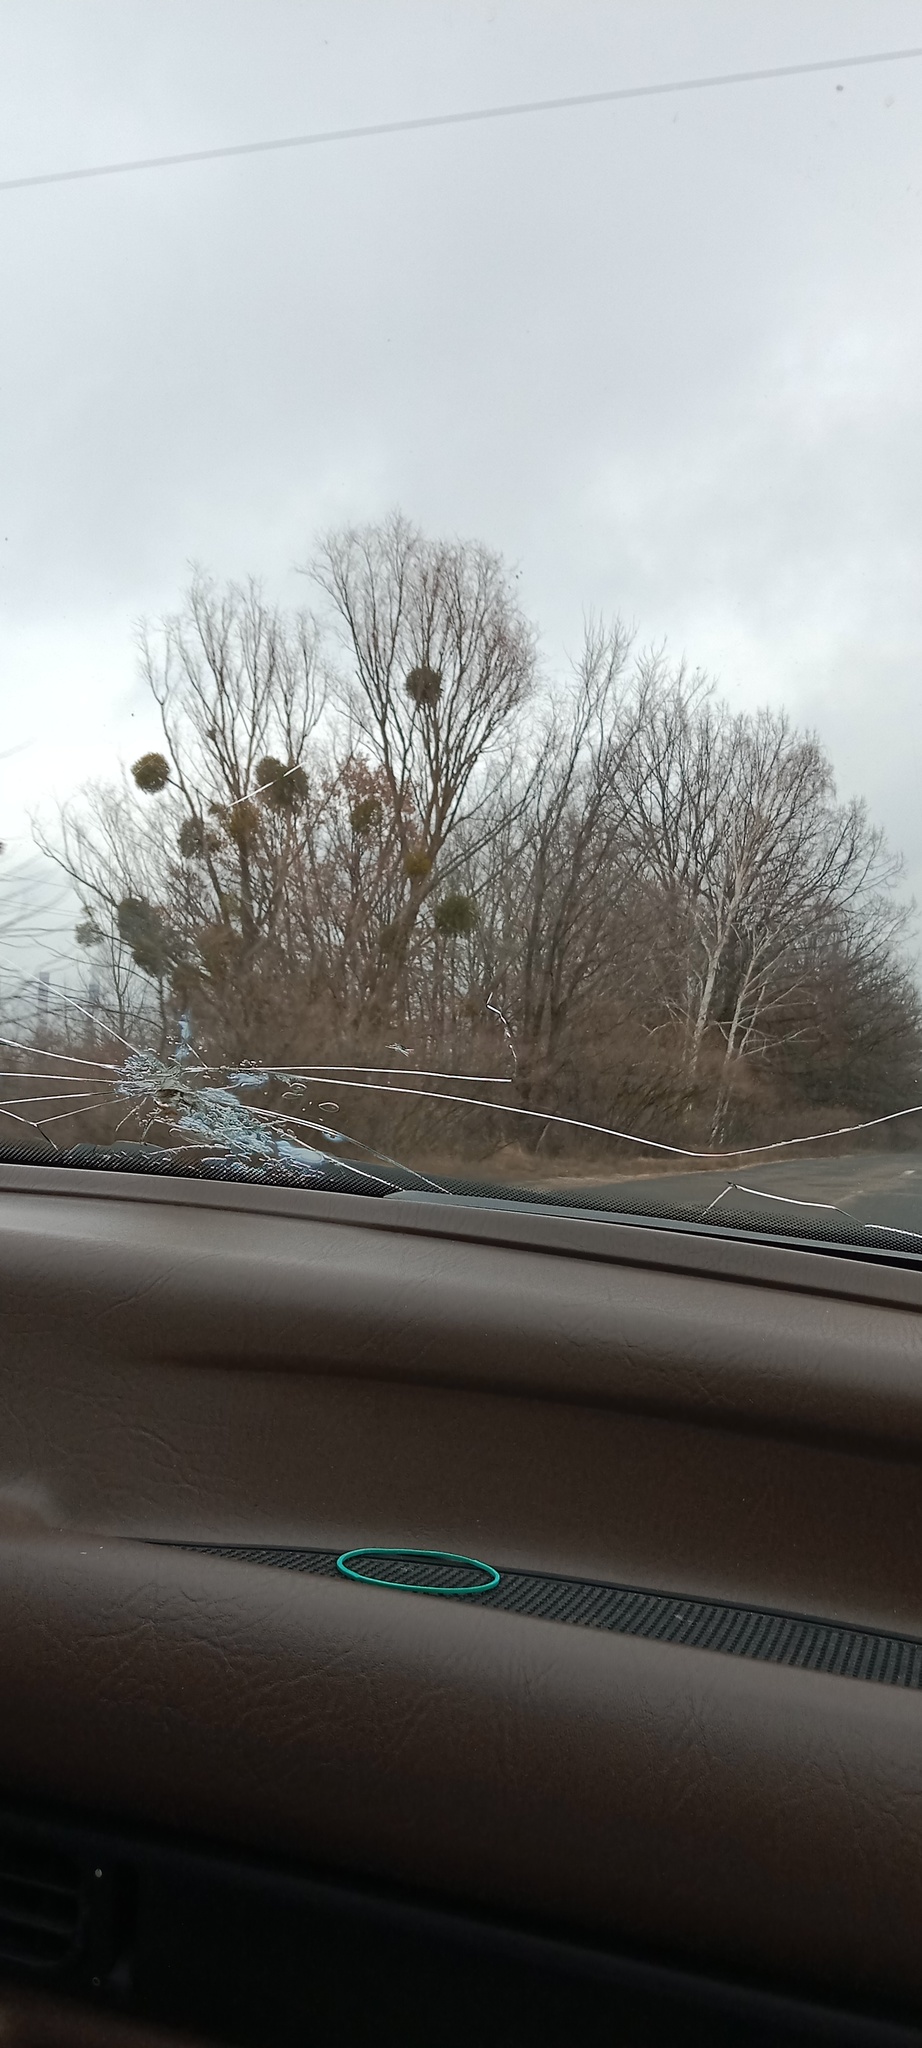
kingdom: Plantae
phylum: Tracheophyta
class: Magnoliopsida
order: Santalales
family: Viscaceae
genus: Viscum
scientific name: Viscum album
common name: Mistletoe
